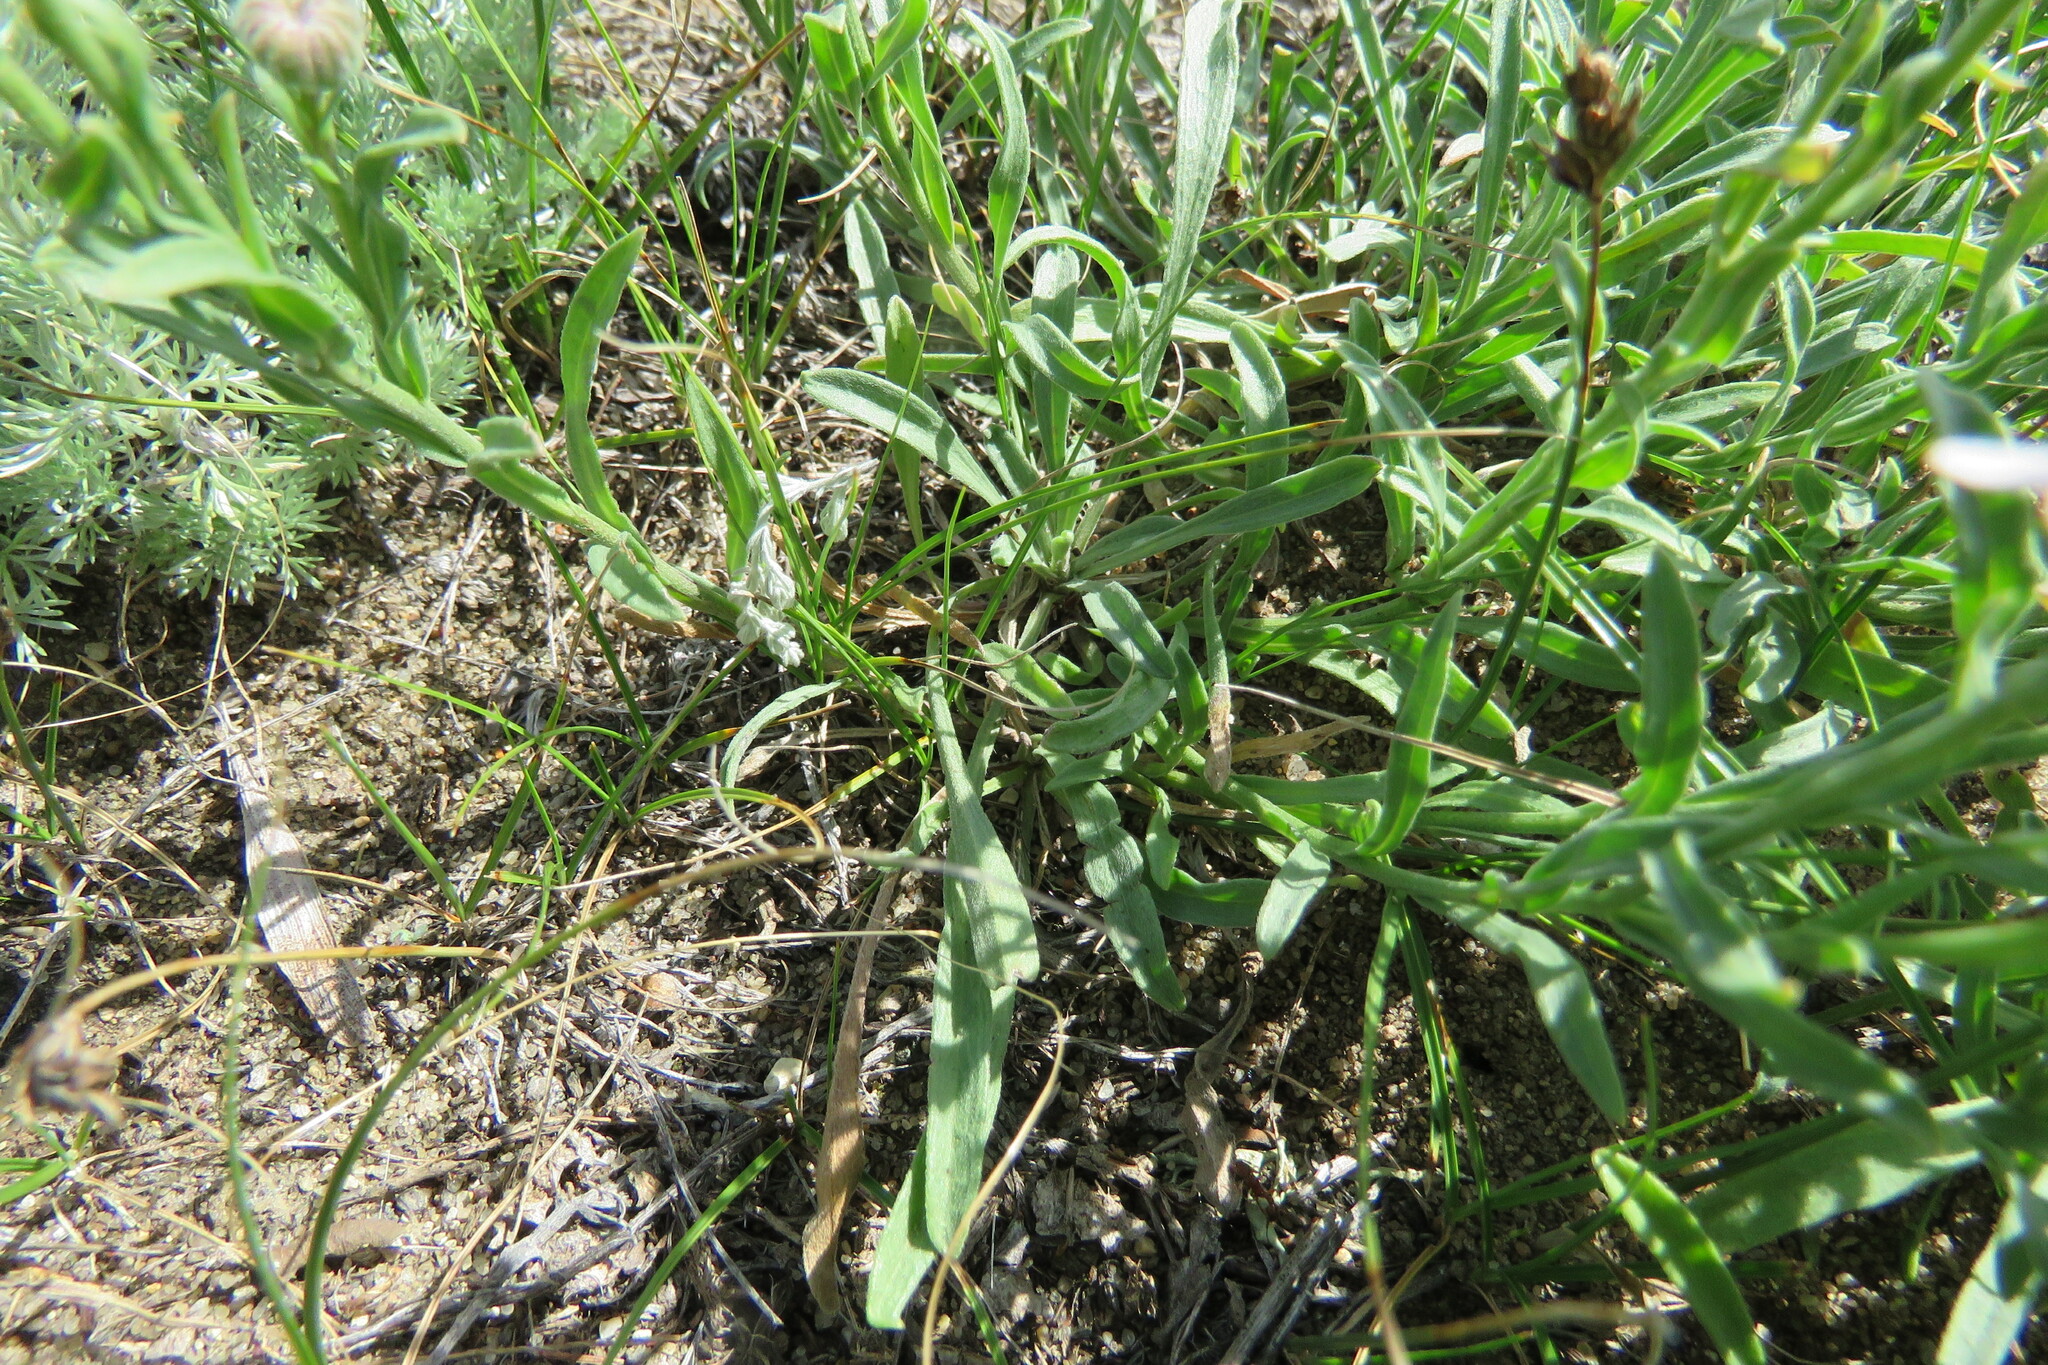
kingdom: Plantae
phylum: Tracheophyta
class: Magnoliopsida
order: Asterales
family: Asteraceae
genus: Erigeron
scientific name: Erigeron caespitosus
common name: Tufted fleabane
